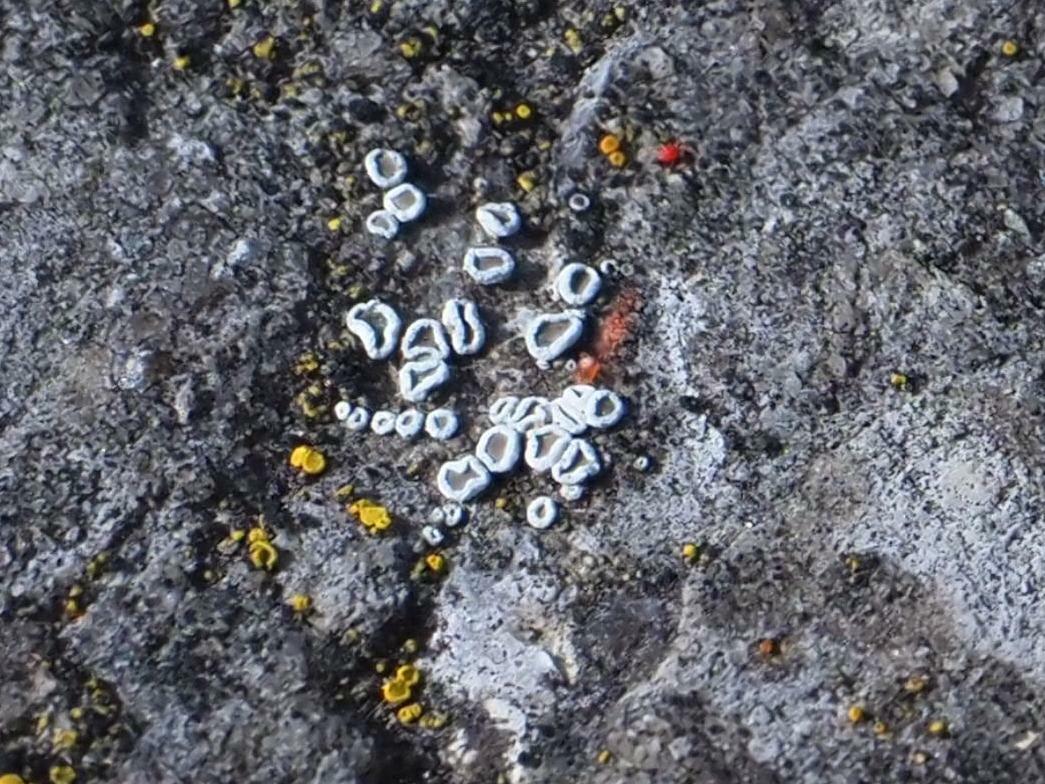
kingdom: Fungi
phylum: Ascomycota
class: Lecanoromycetes
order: Lecanorales
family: Lecanoraceae
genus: Polyozosia
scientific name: Polyozosia dispersa
